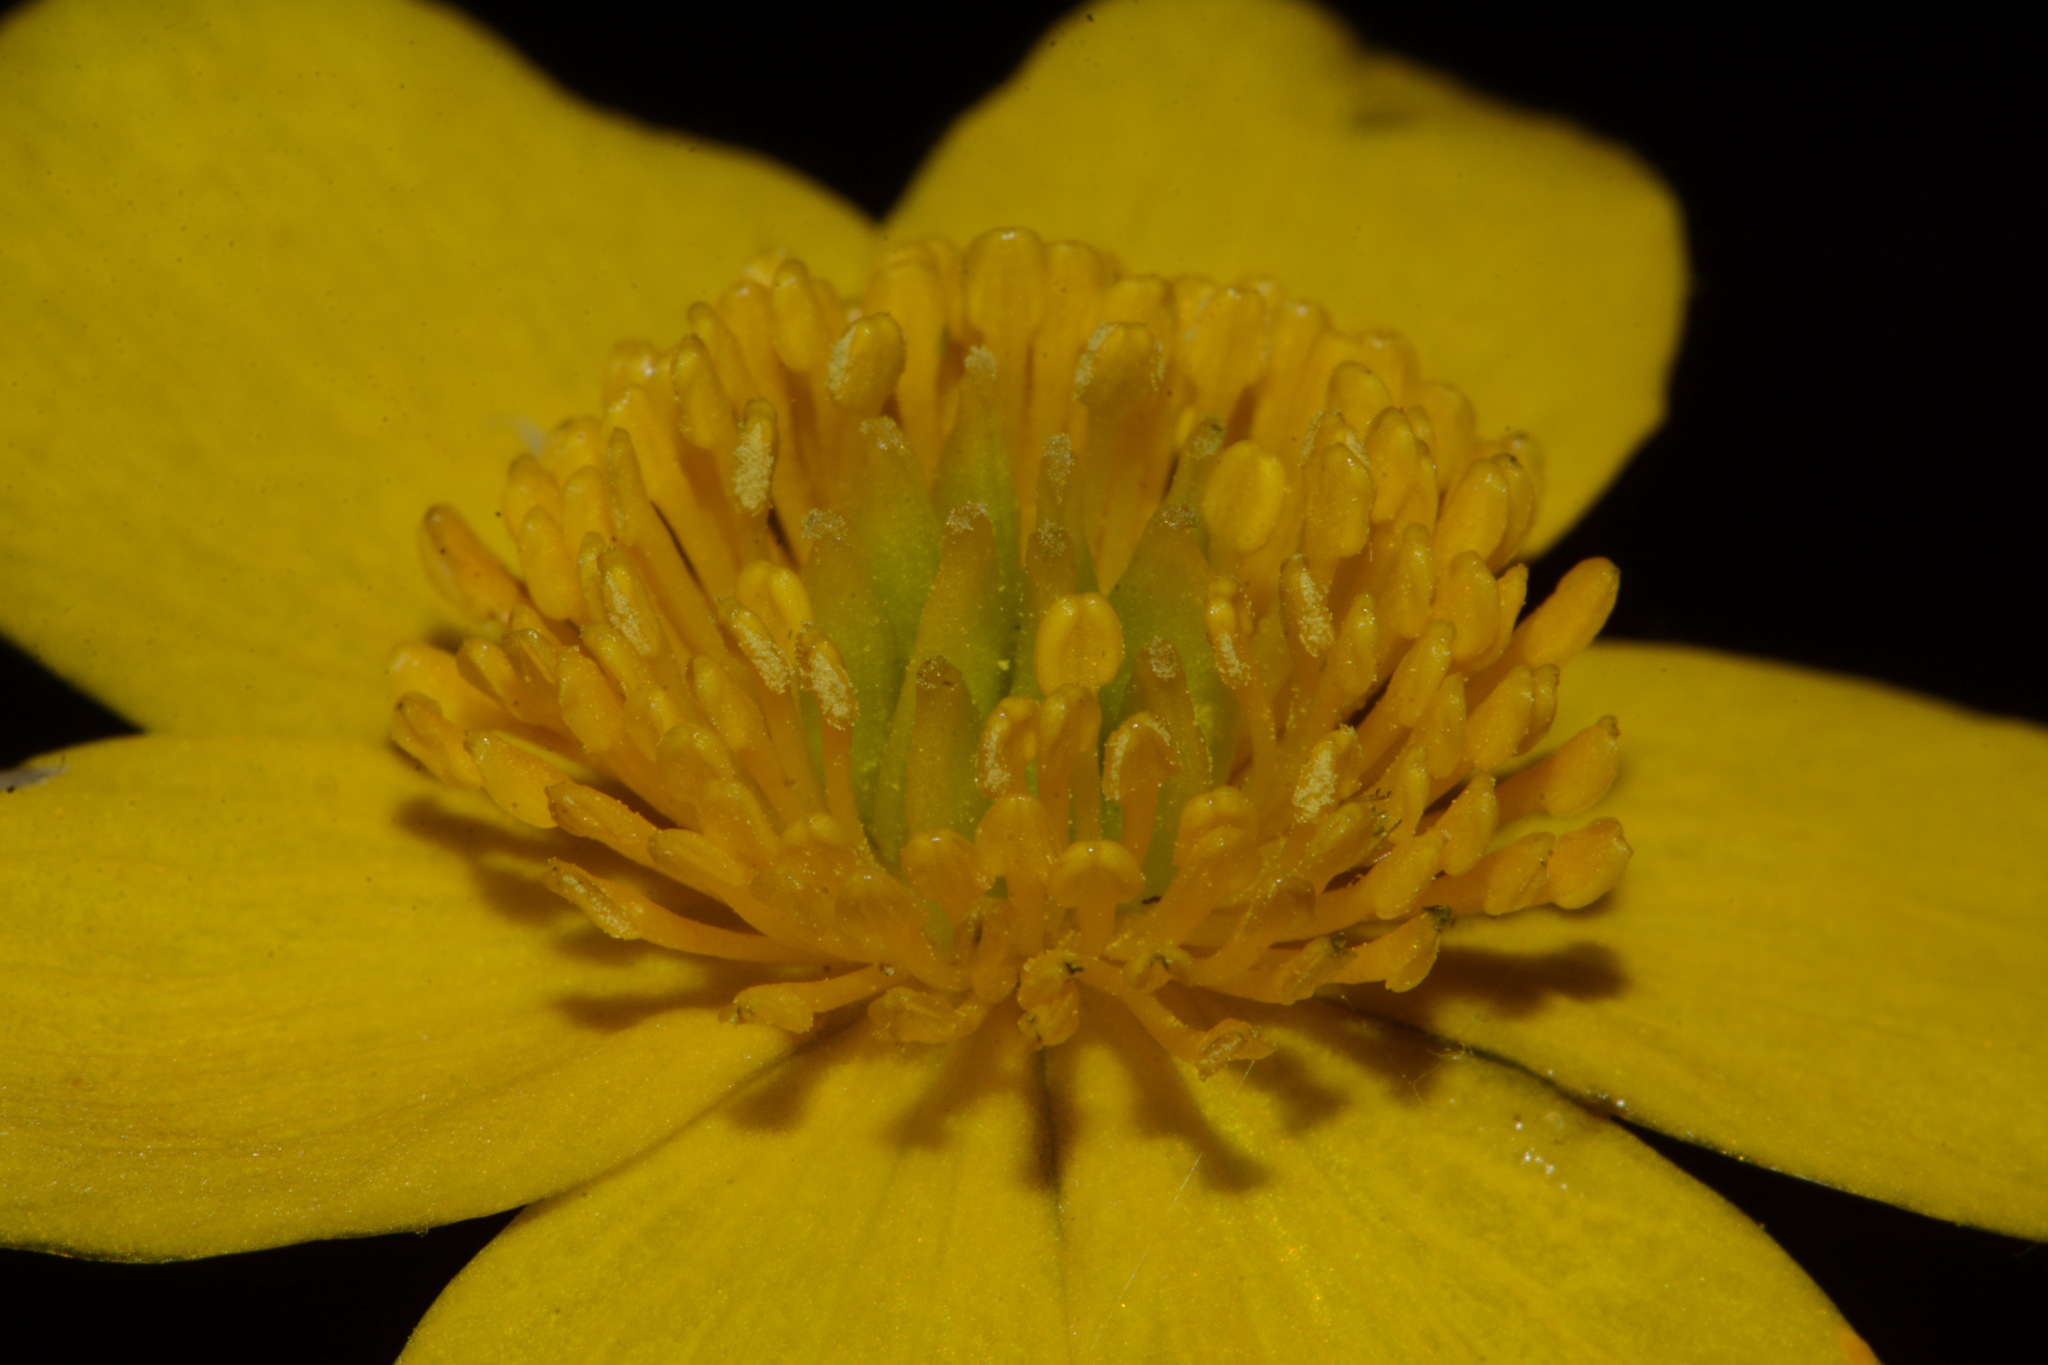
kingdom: Plantae
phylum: Tracheophyta
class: Magnoliopsida
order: Ranunculales
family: Ranunculaceae
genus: Caltha
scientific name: Caltha palustris
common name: Marsh marigold
